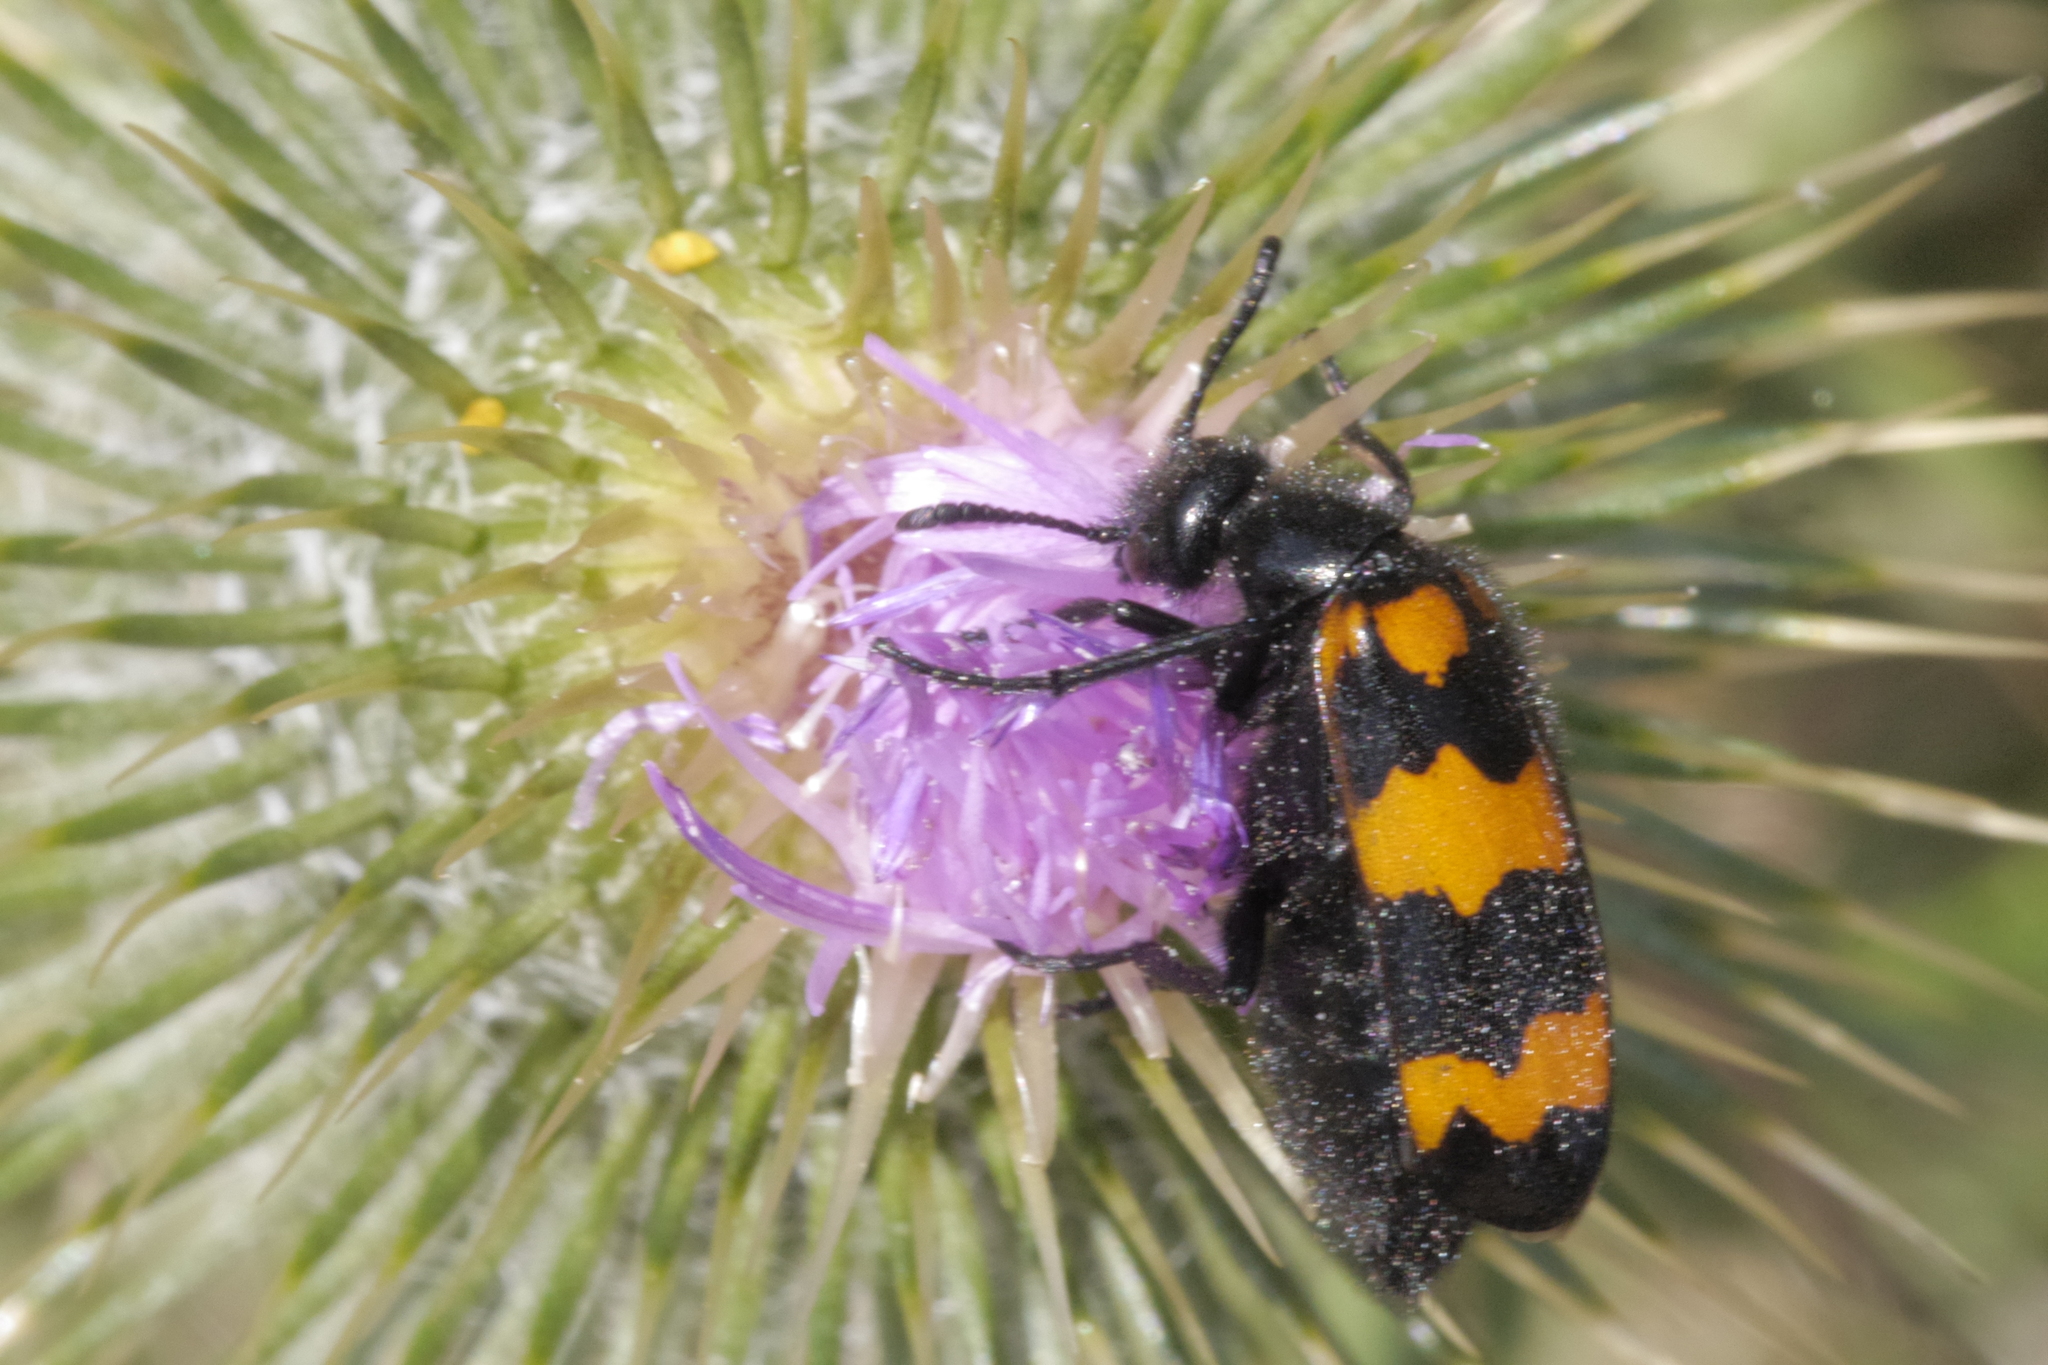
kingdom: Animalia
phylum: Arthropoda
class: Insecta
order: Coleoptera
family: Meloidae
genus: Mylabris
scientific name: Mylabris variabilis
